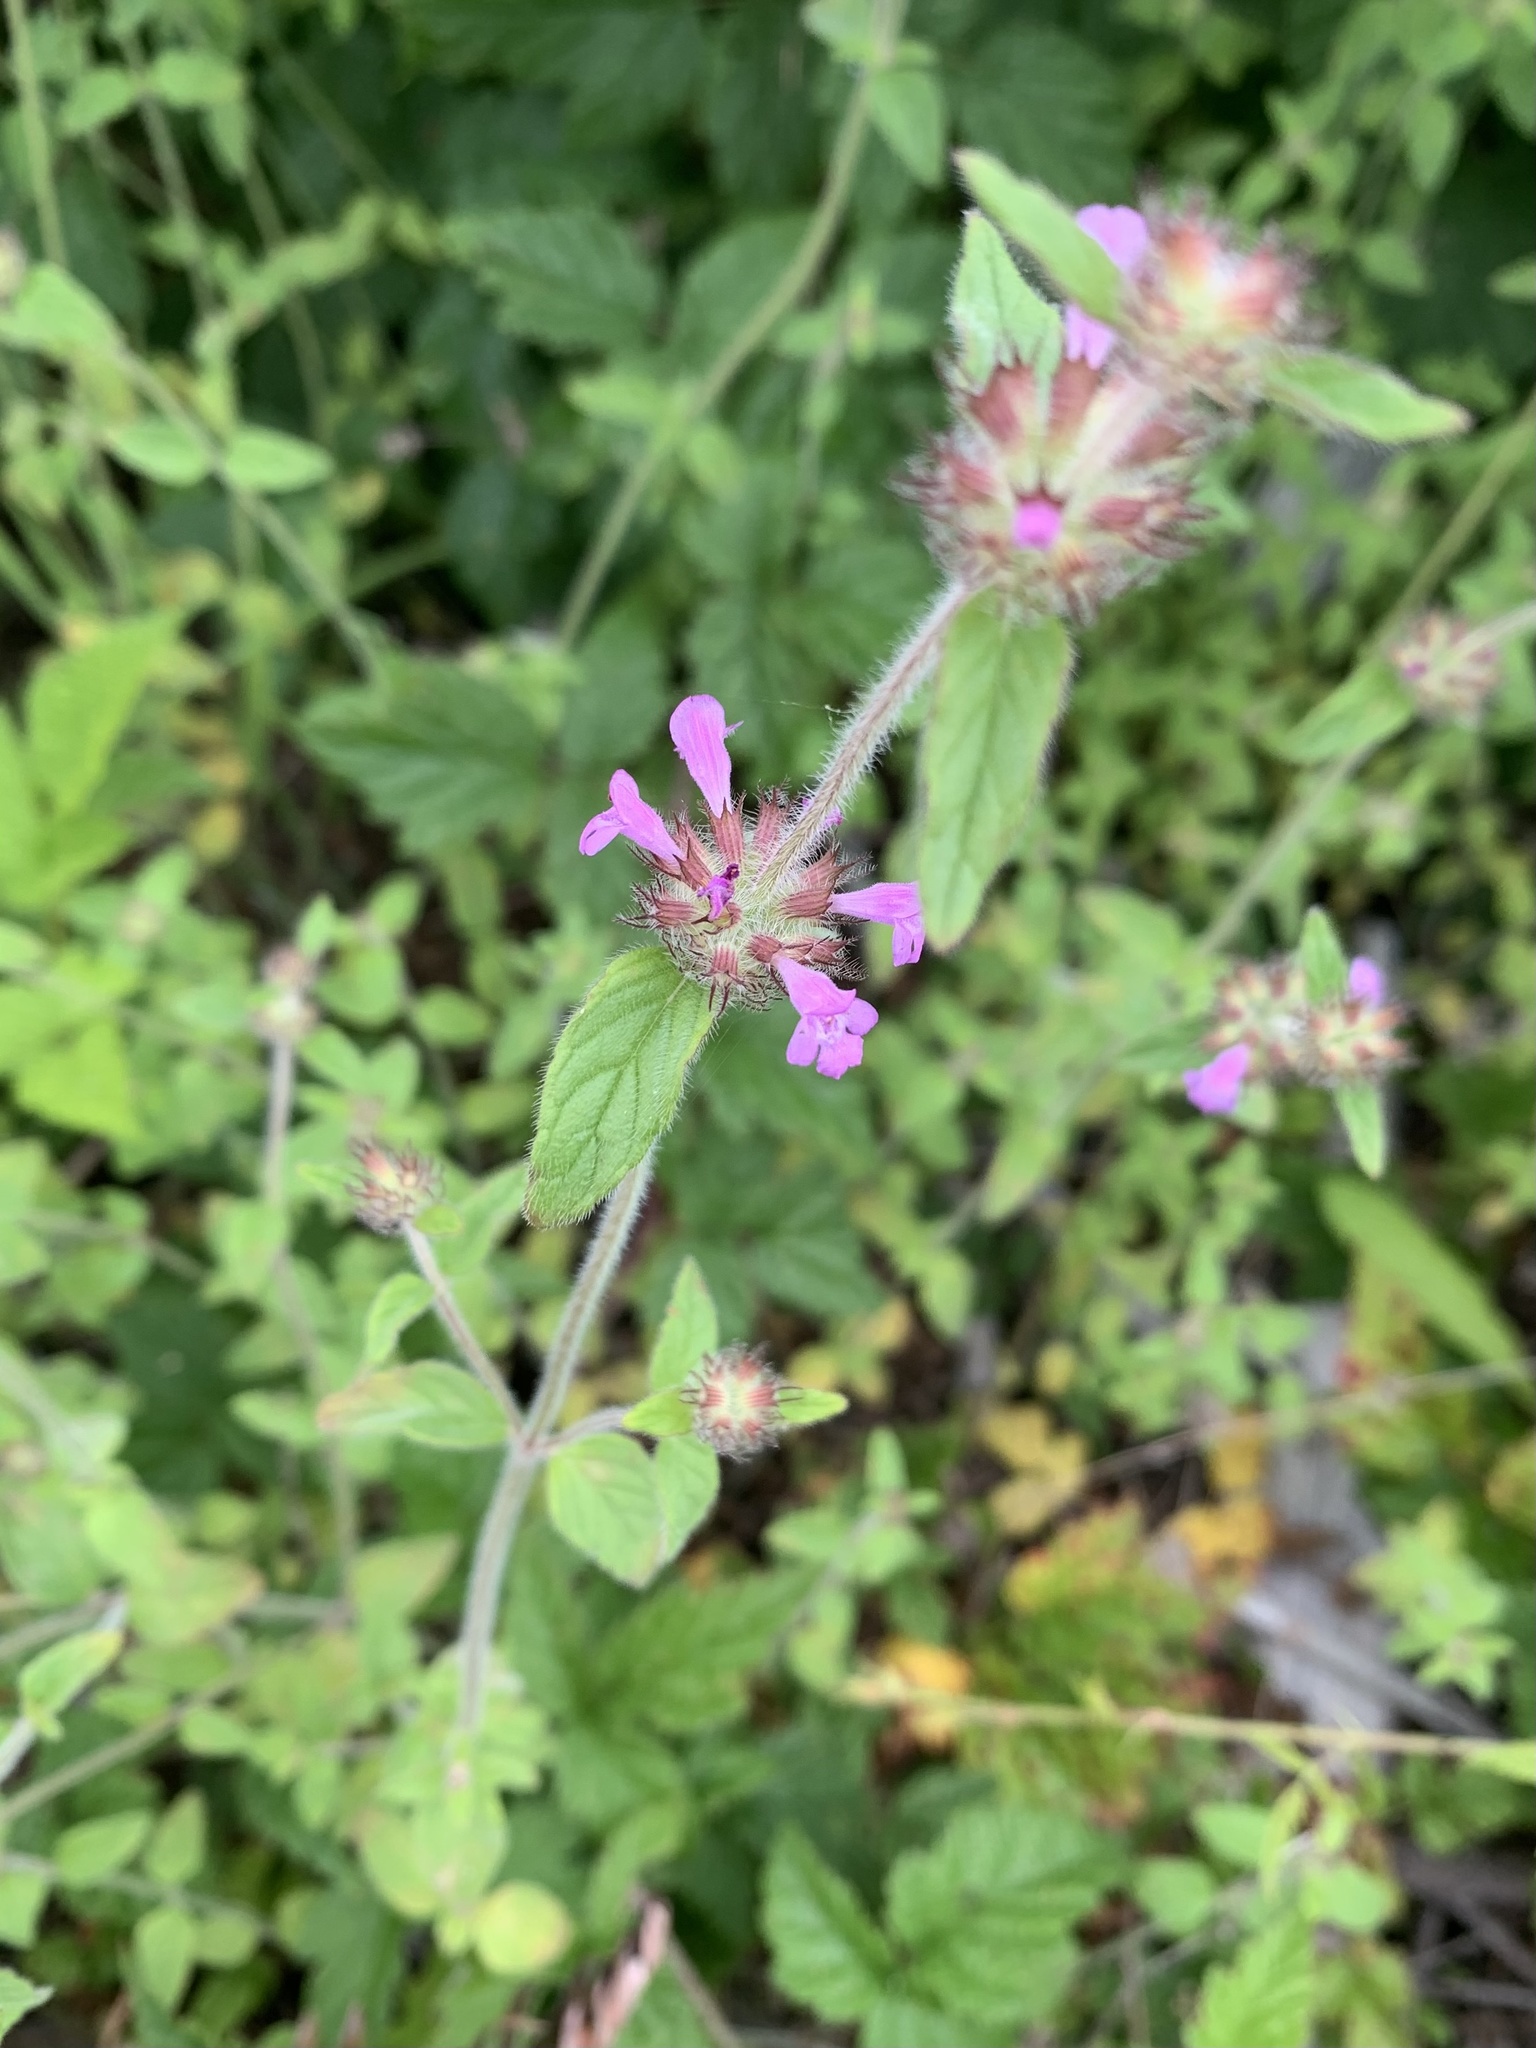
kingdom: Plantae
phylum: Tracheophyta
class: Magnoliopsida
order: Lamiales
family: Lamiaceae
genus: Clinopodium
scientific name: Clinopodium vulgare
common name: Wild basil
